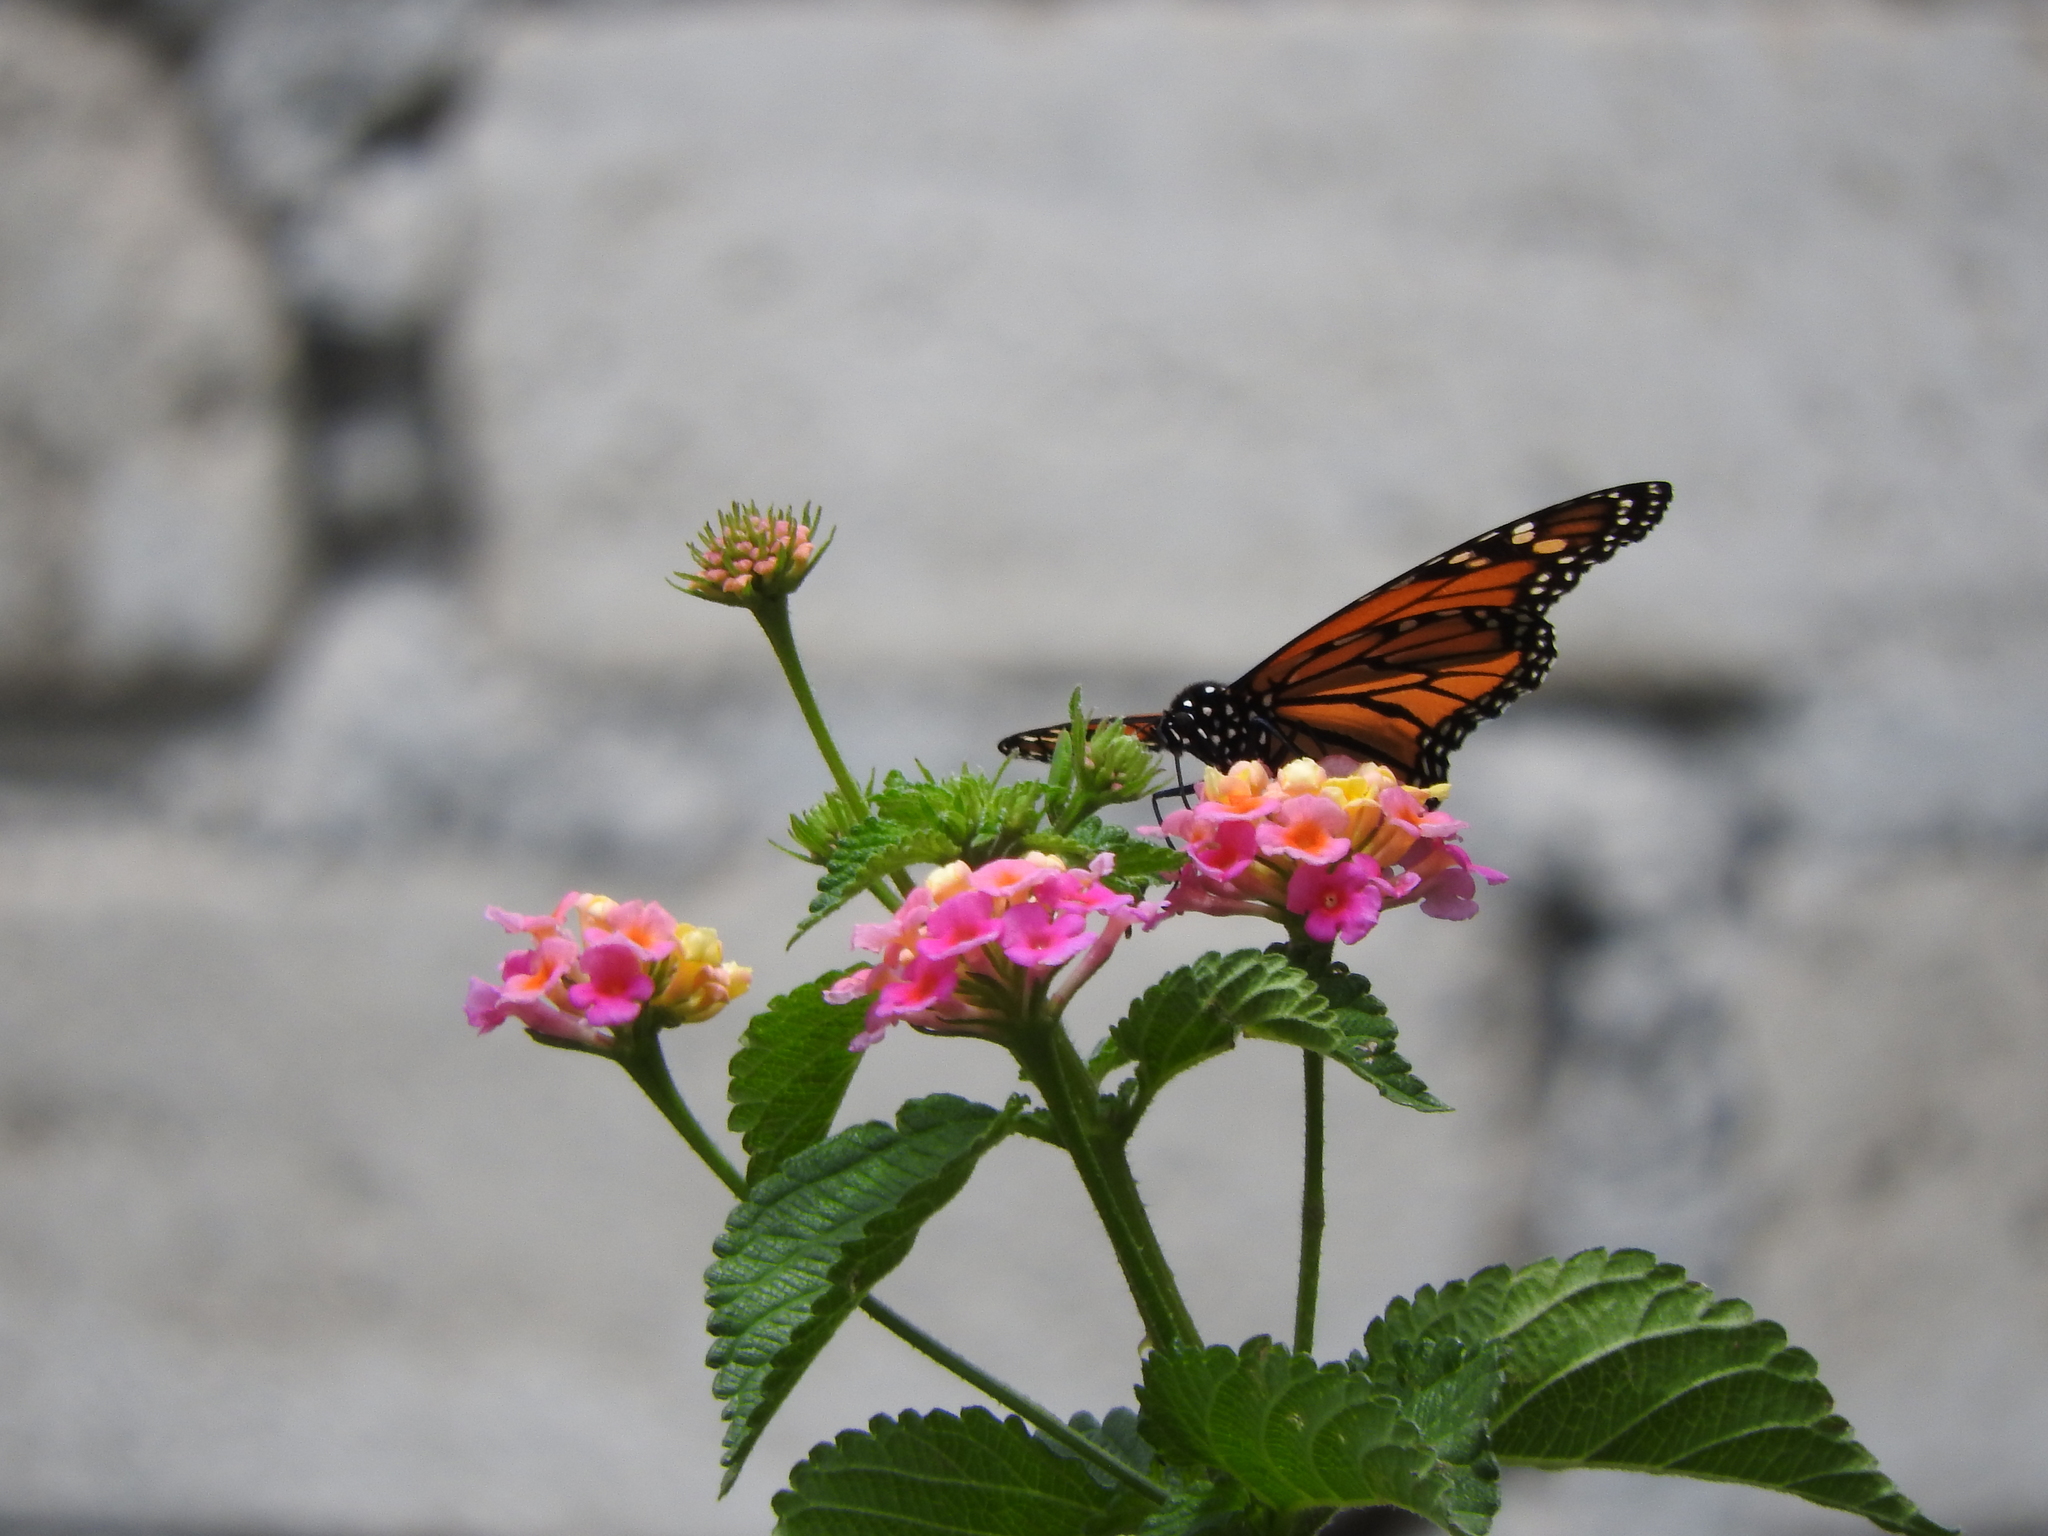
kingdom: Animalia
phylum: Arthropoda
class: Insecta
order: Lepidoptera
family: Nymphalidae
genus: Danaus
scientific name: Danaus plexippus
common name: Monarch
